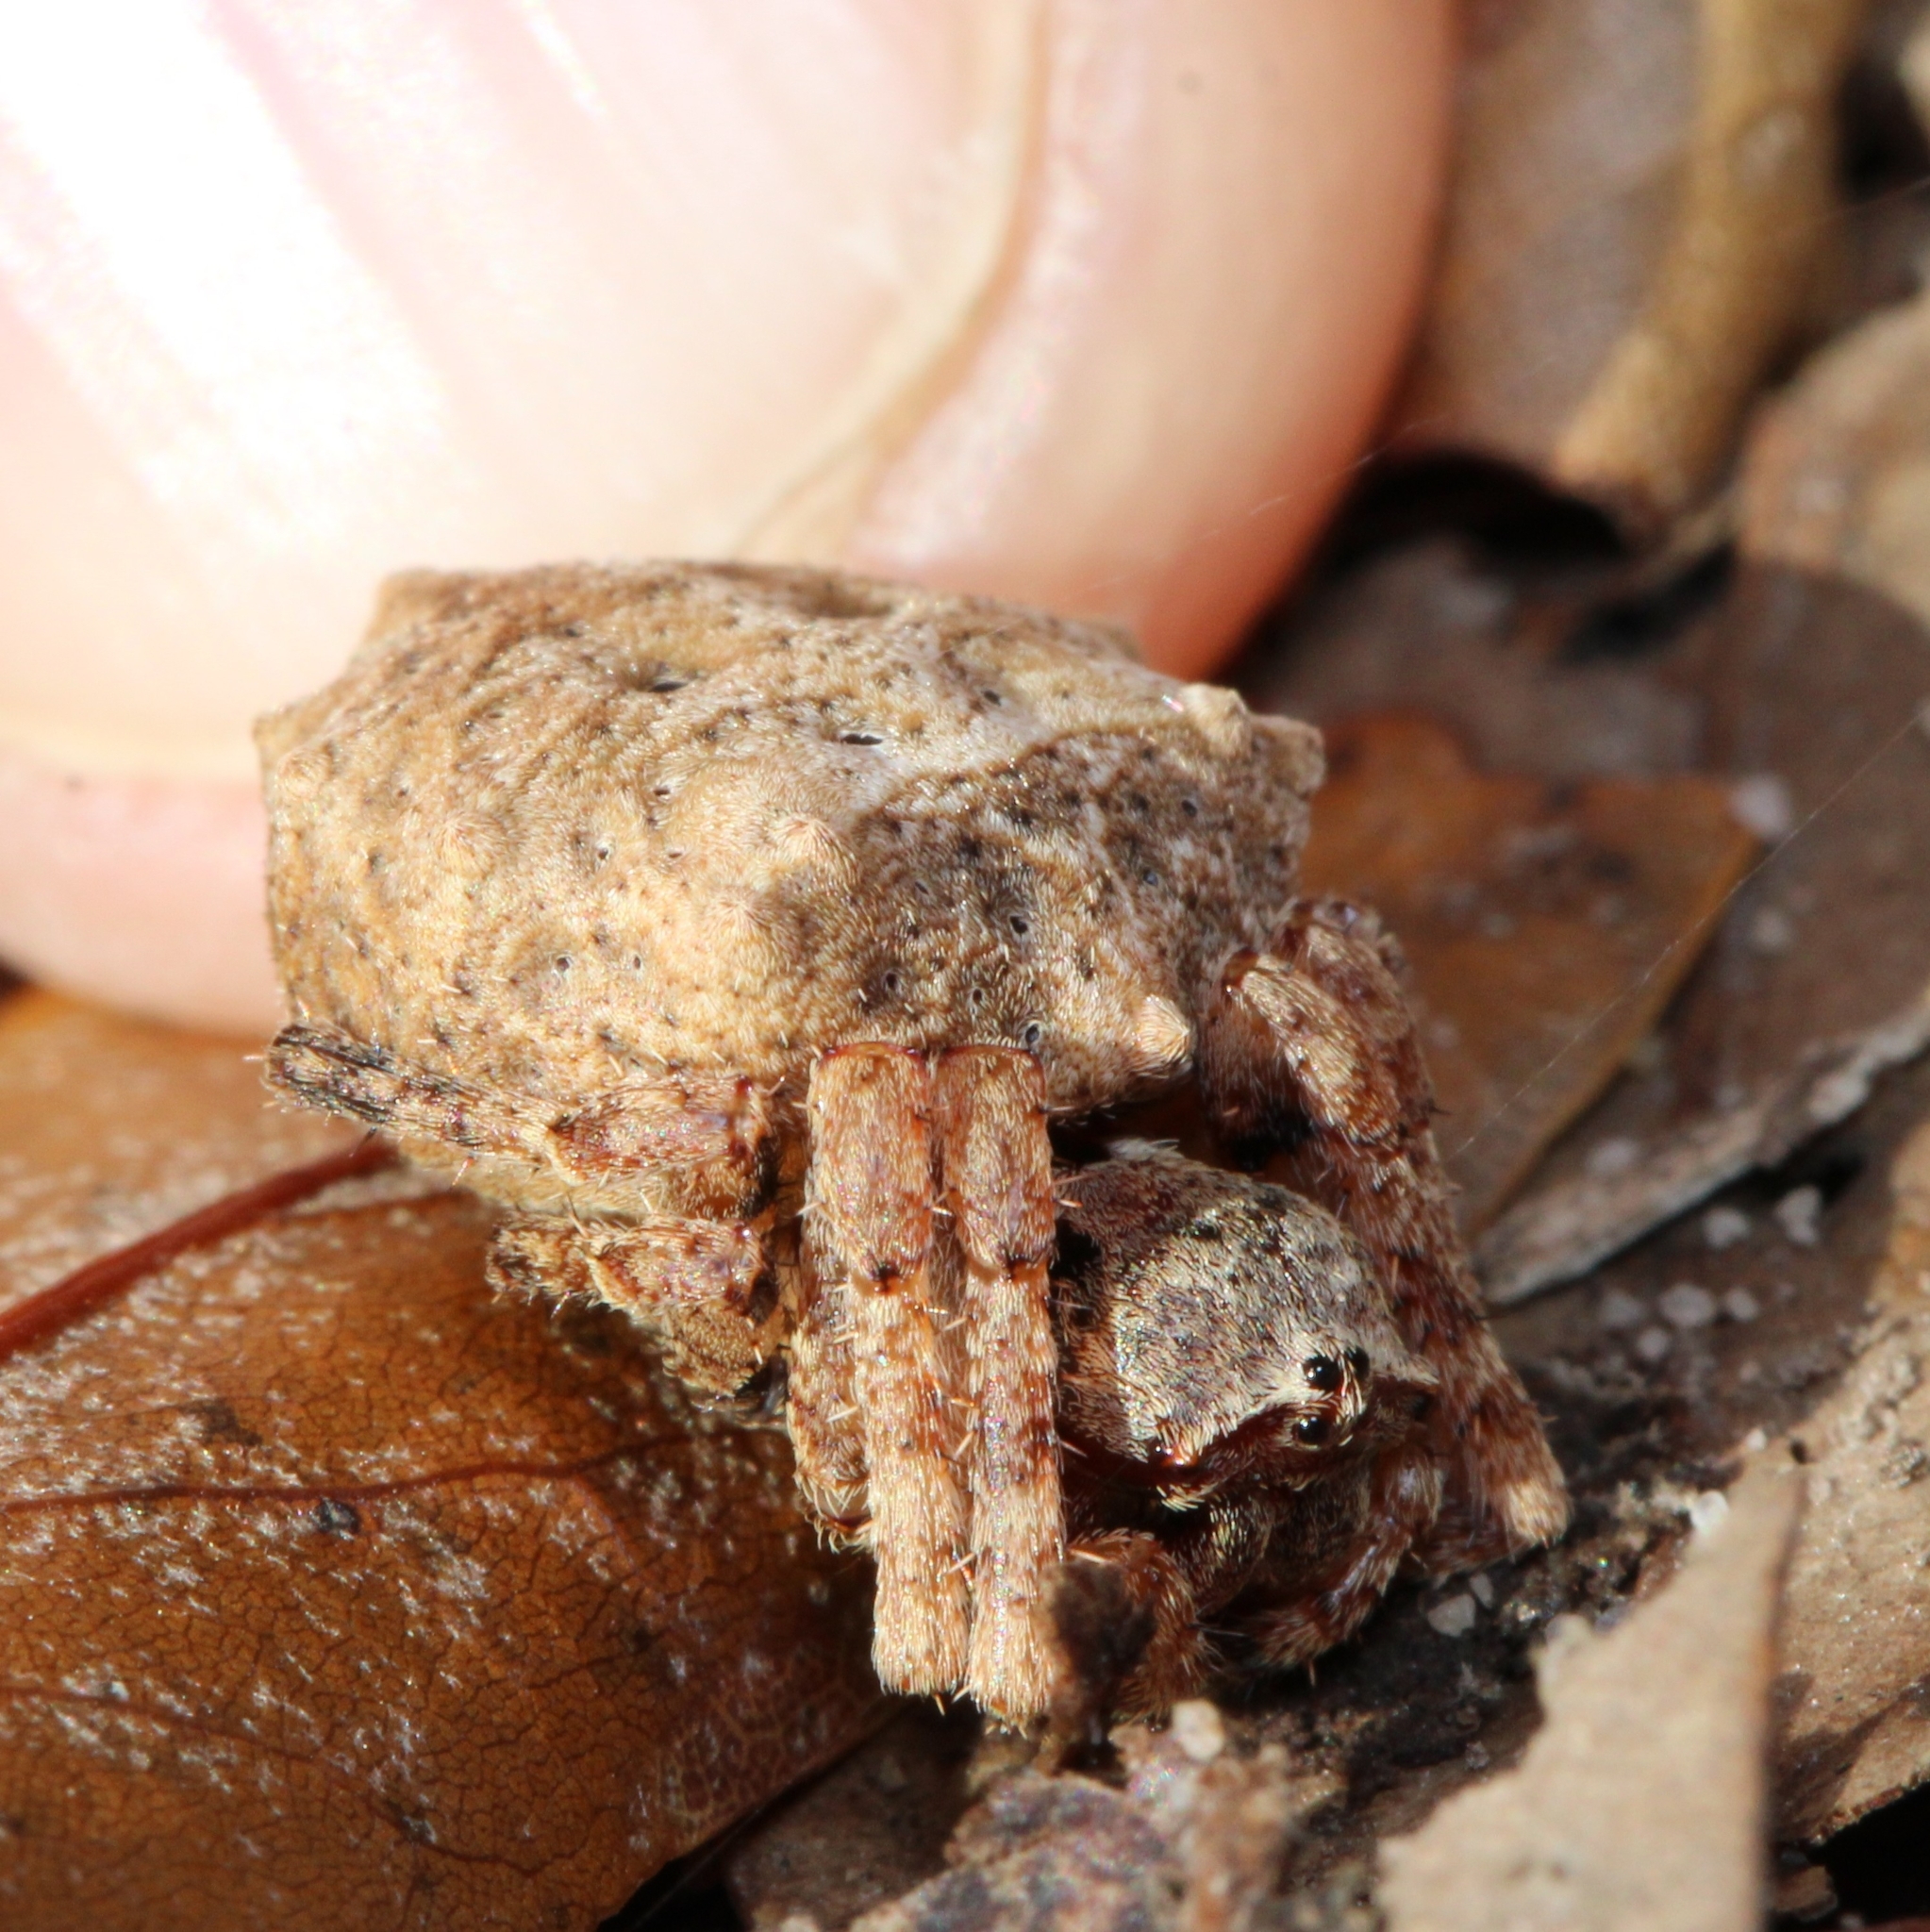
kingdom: Animalia
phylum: Arthropoda
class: Arachnida
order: Araneae
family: Araneidae
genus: Acanthepeira
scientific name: Acanthepeira stellata
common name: Starbellied orbweaver
